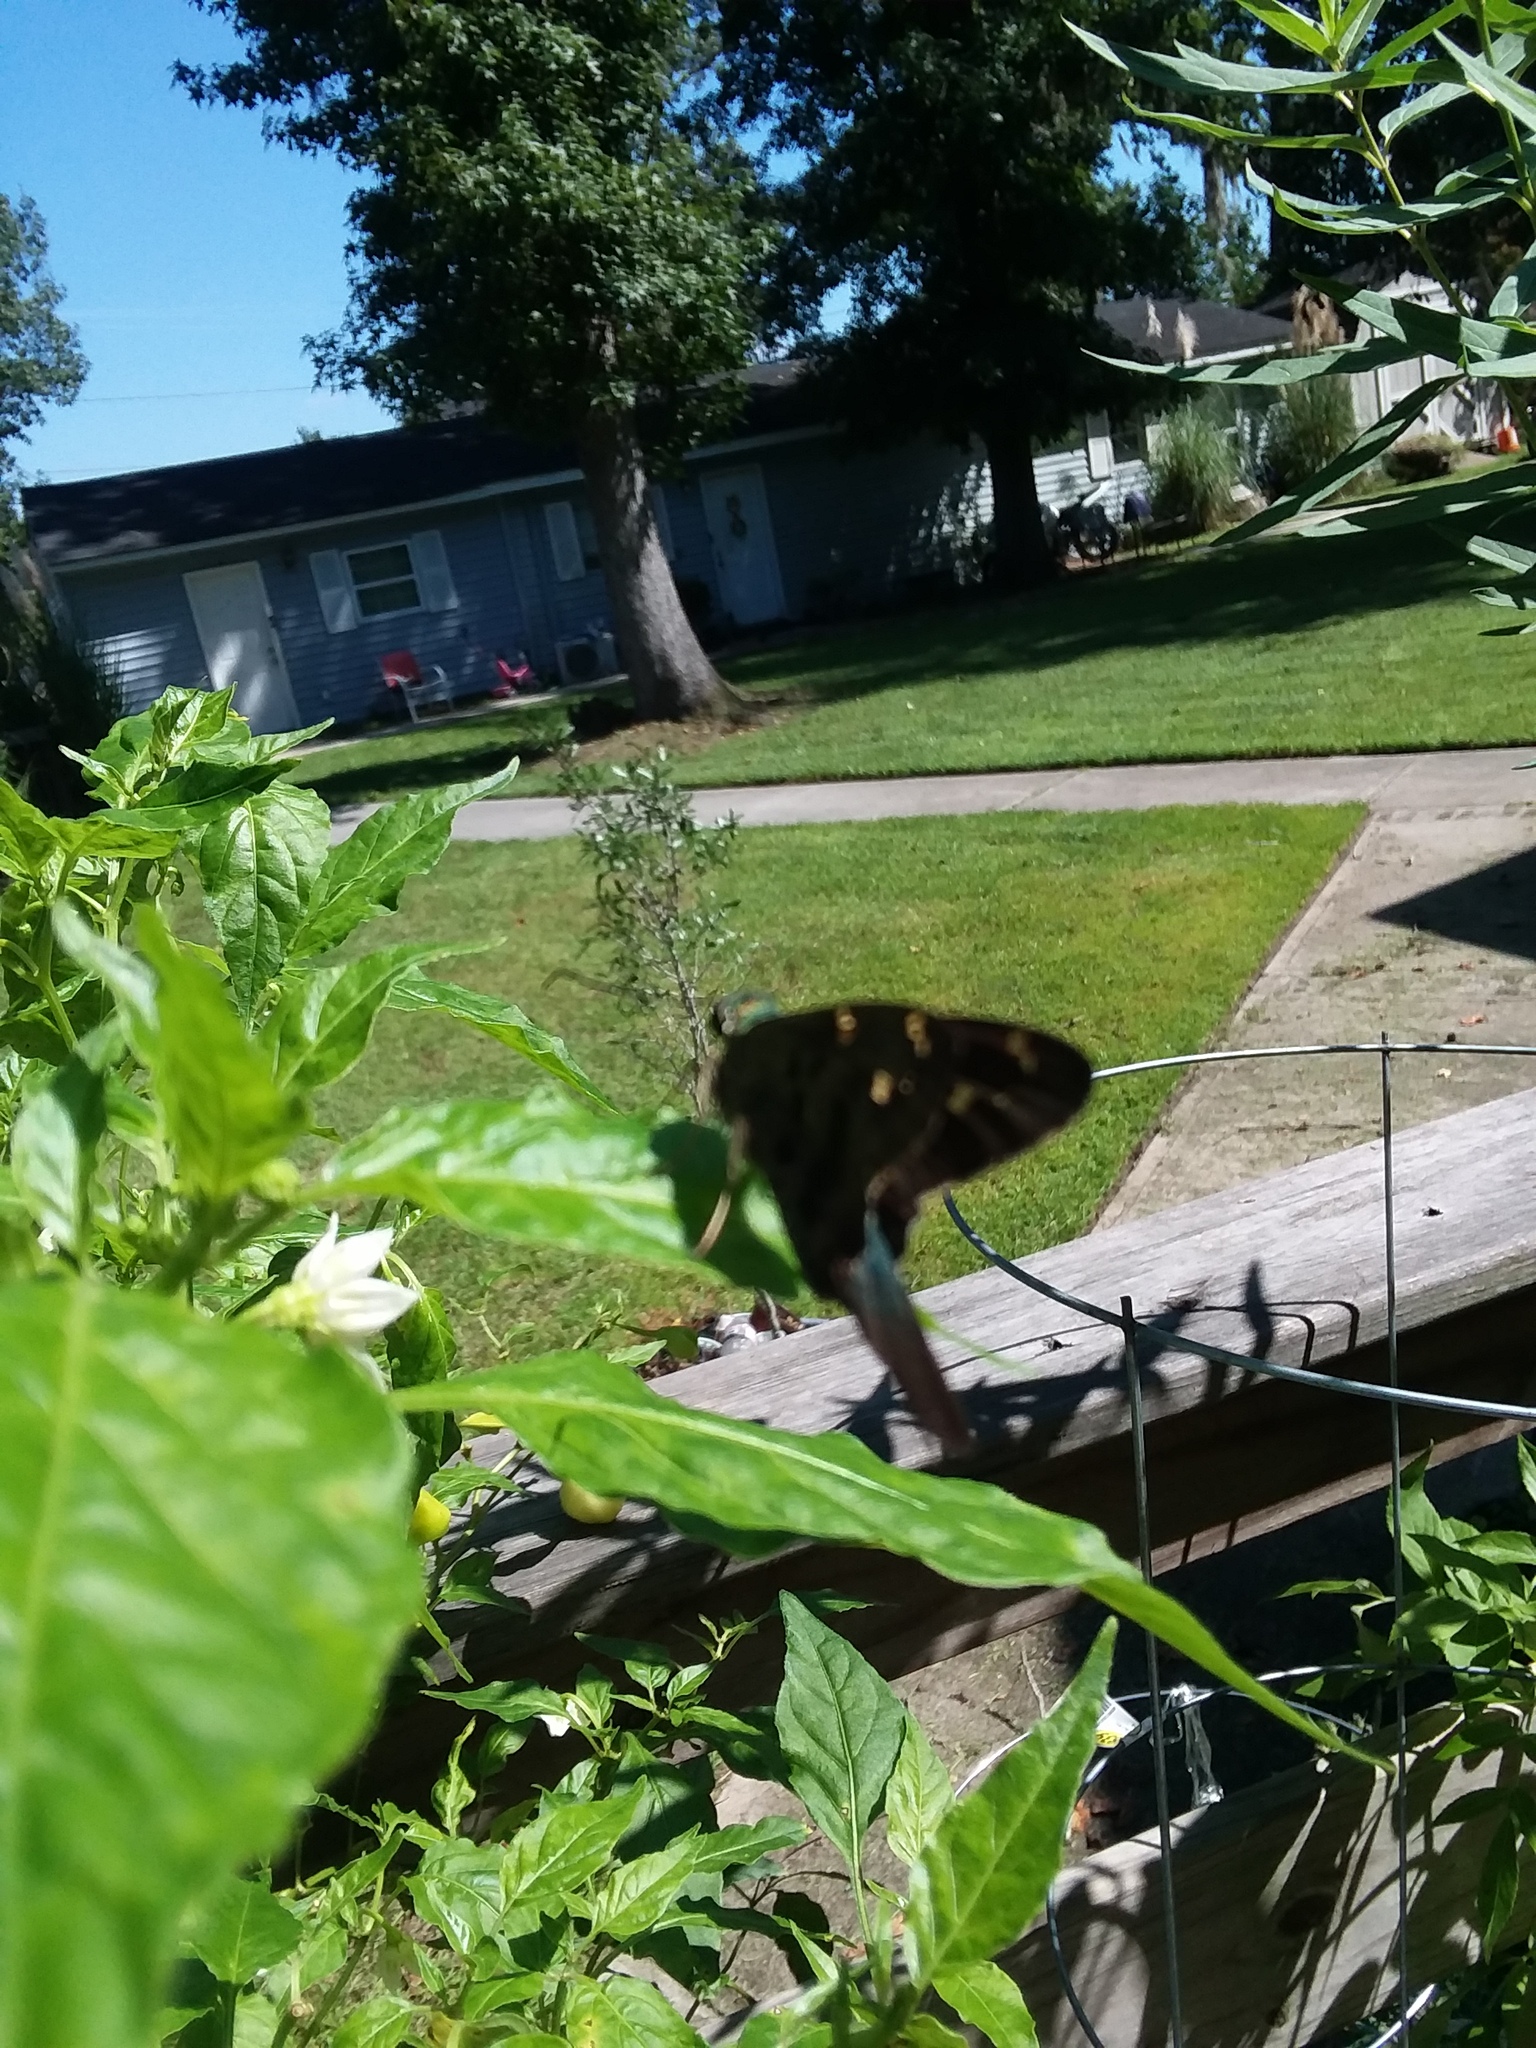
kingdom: Animalia
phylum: Arthropoda
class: Insecta
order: Lepidoptera
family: Hesperiidae
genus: Urbanus
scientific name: Urbanus proteus
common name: Long-tailed skipper
